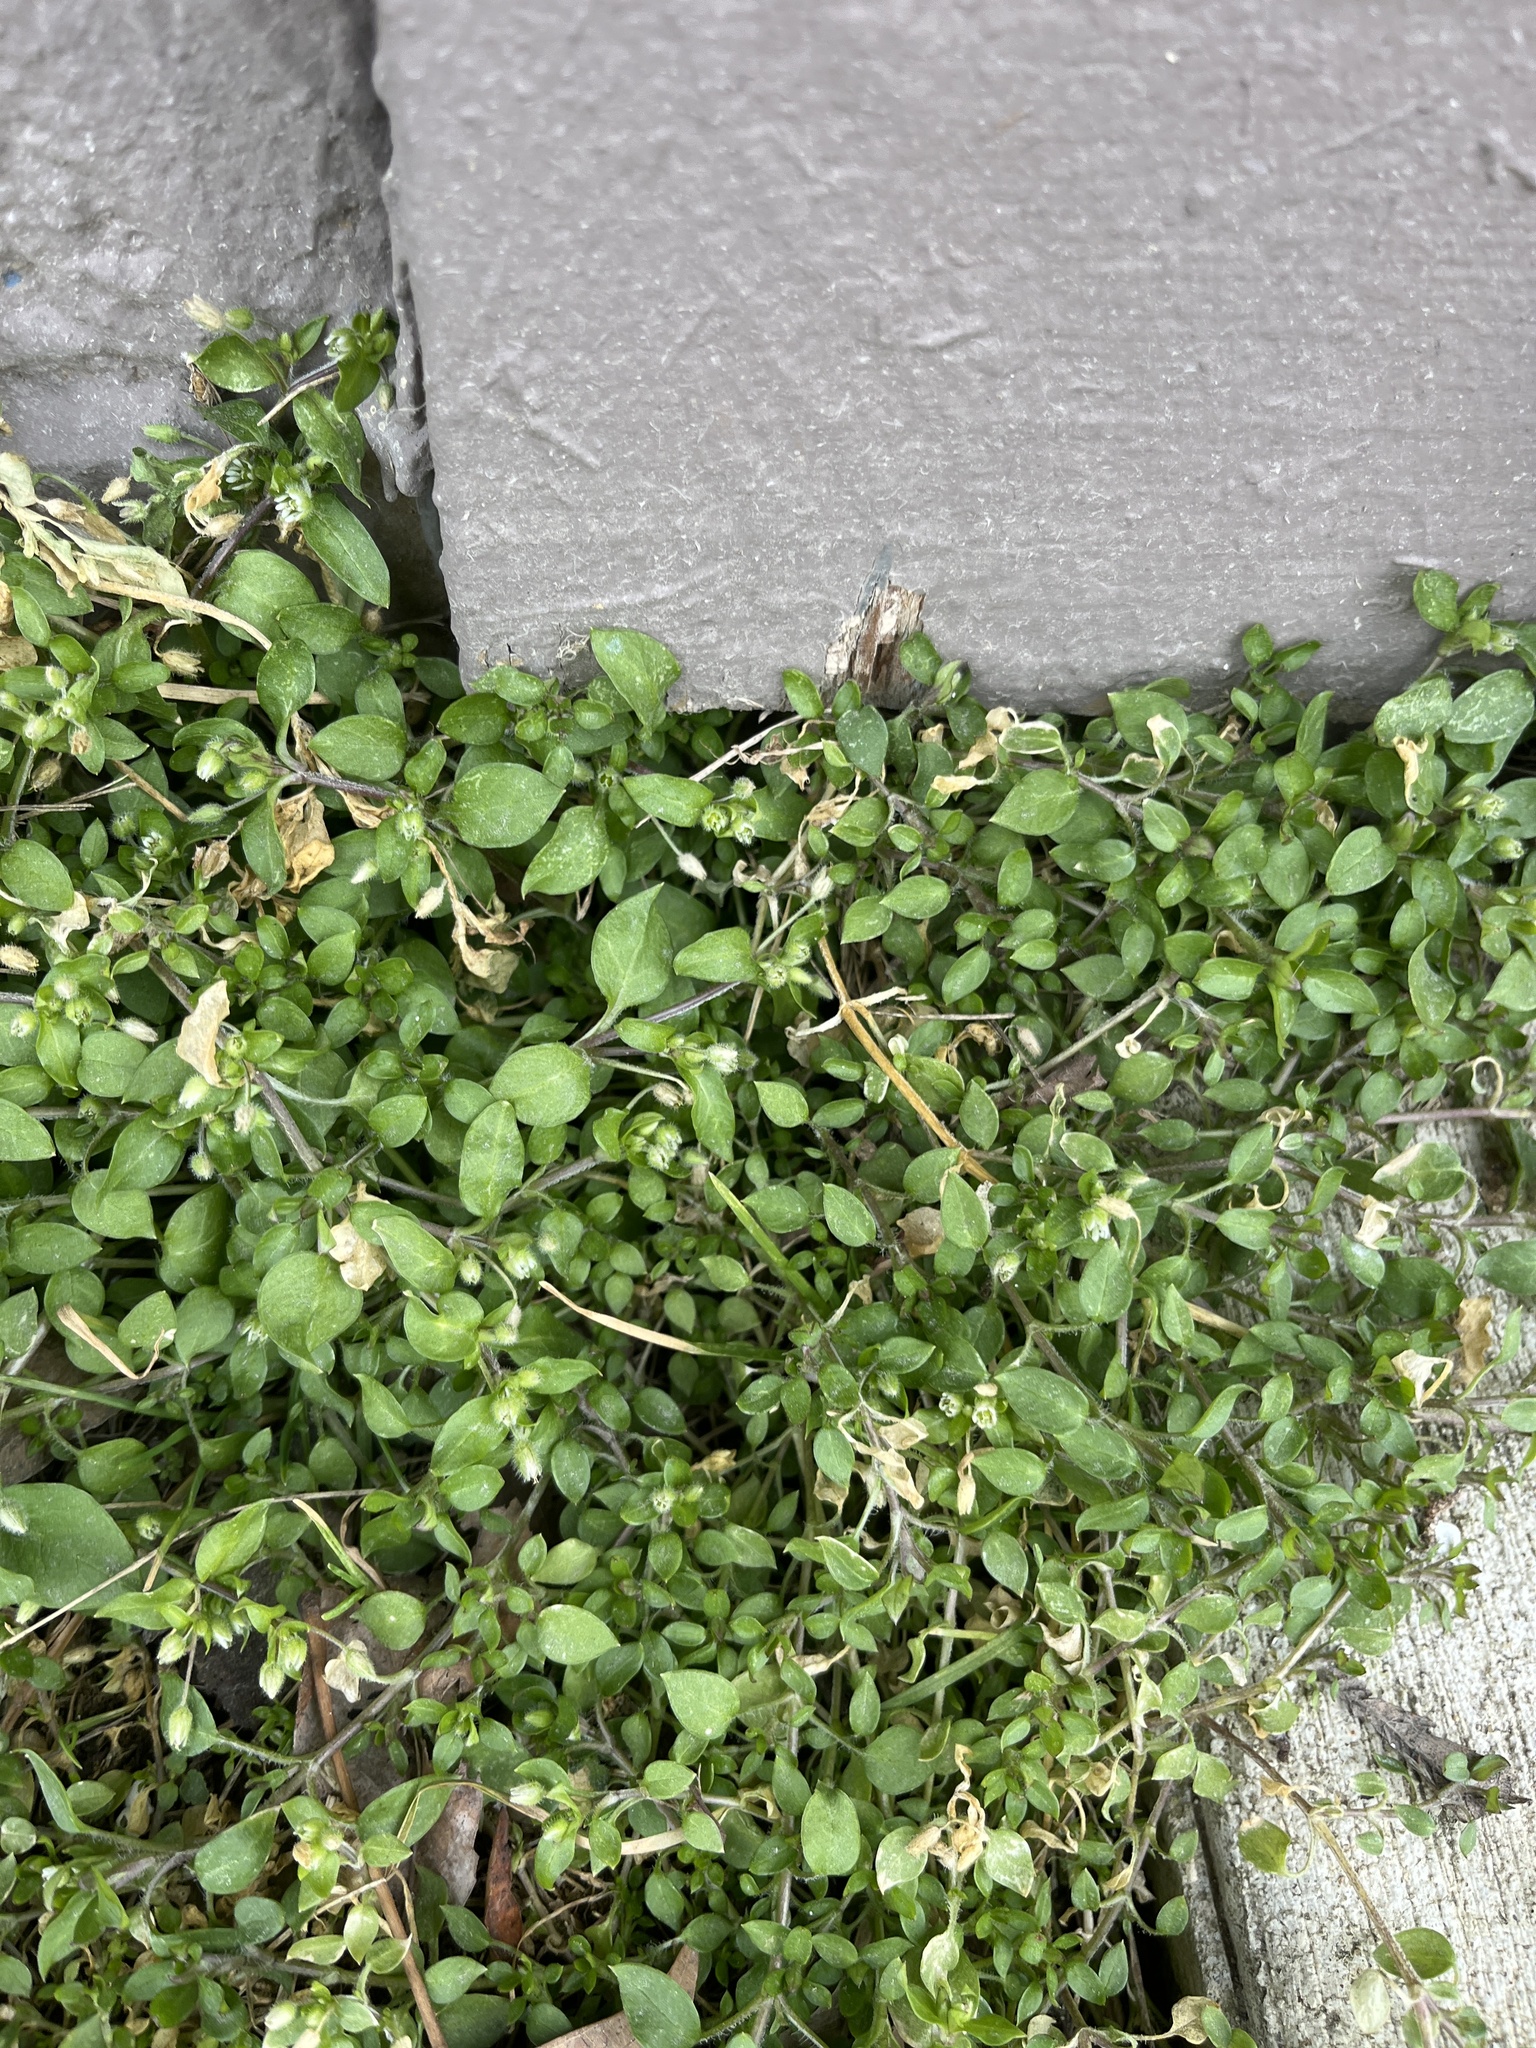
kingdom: Plantae
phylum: Tracheophyta
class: Magnoliopsida
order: Caryophyllales
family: Caryophyllaceae
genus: Stellaria
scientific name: Stellaria media
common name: Common chickweed
